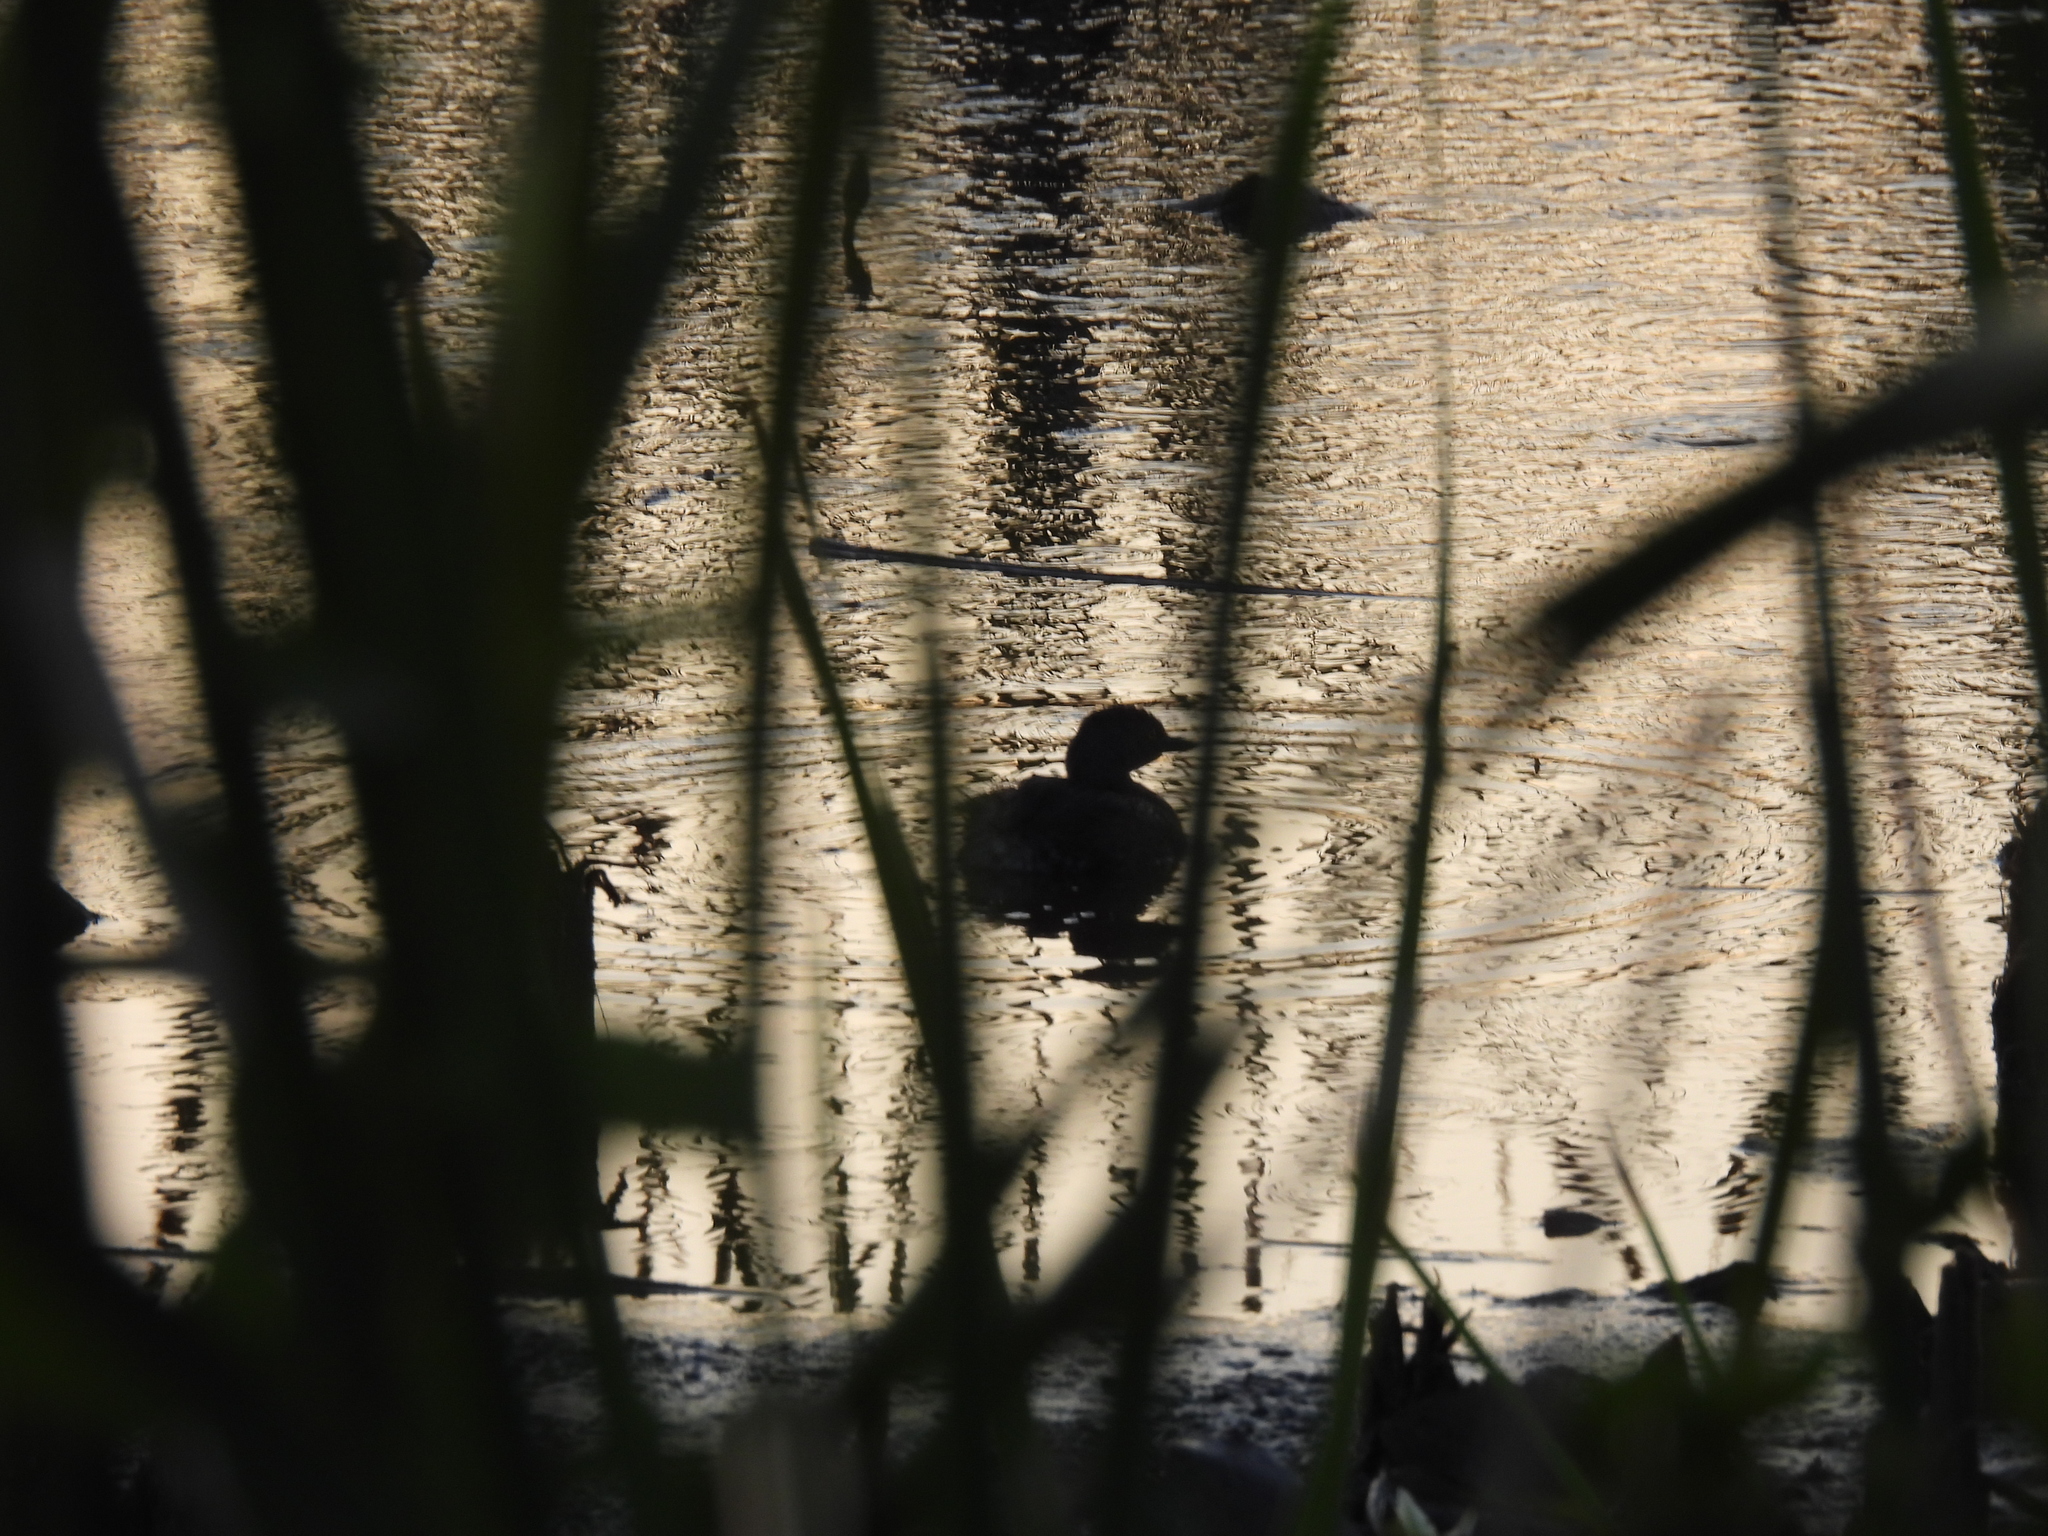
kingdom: Animalia
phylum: Chordata
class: Aves
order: Podicipediformes
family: Podicipedidae
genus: Tachybaptus
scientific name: Tachybaptus dominicus
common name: Least grebe
